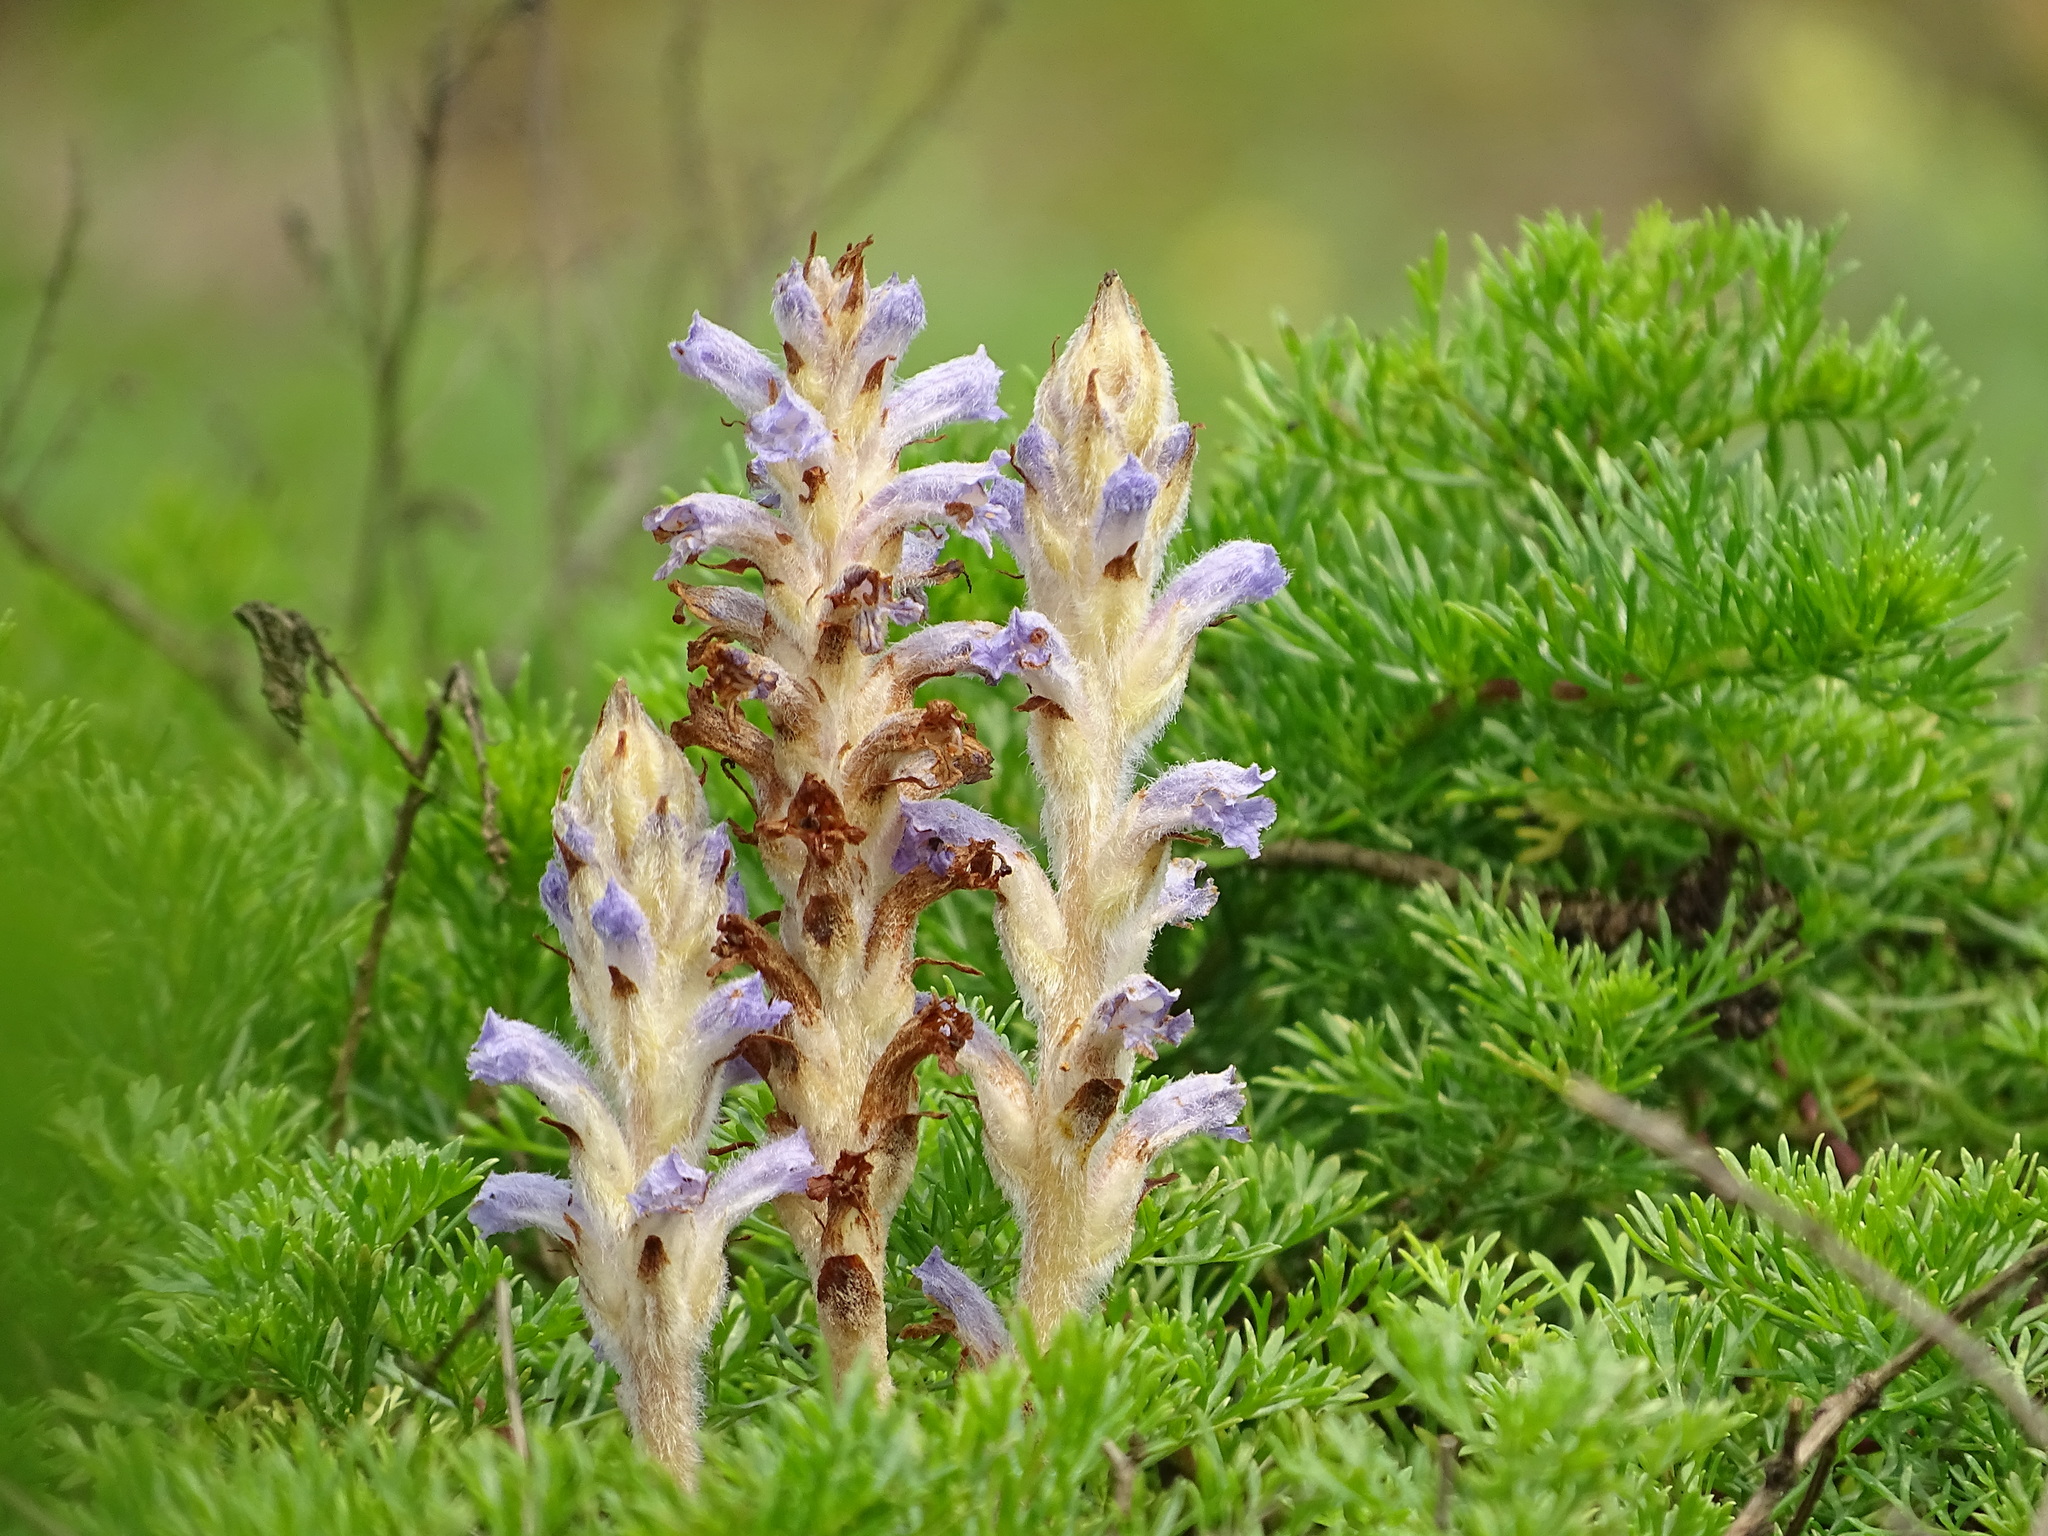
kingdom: Plantae
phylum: Tracheophyta
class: Magnoliopsida
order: Lamiales
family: Orobanchaceae
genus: Orobanche
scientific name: Orobanche coerulescens
